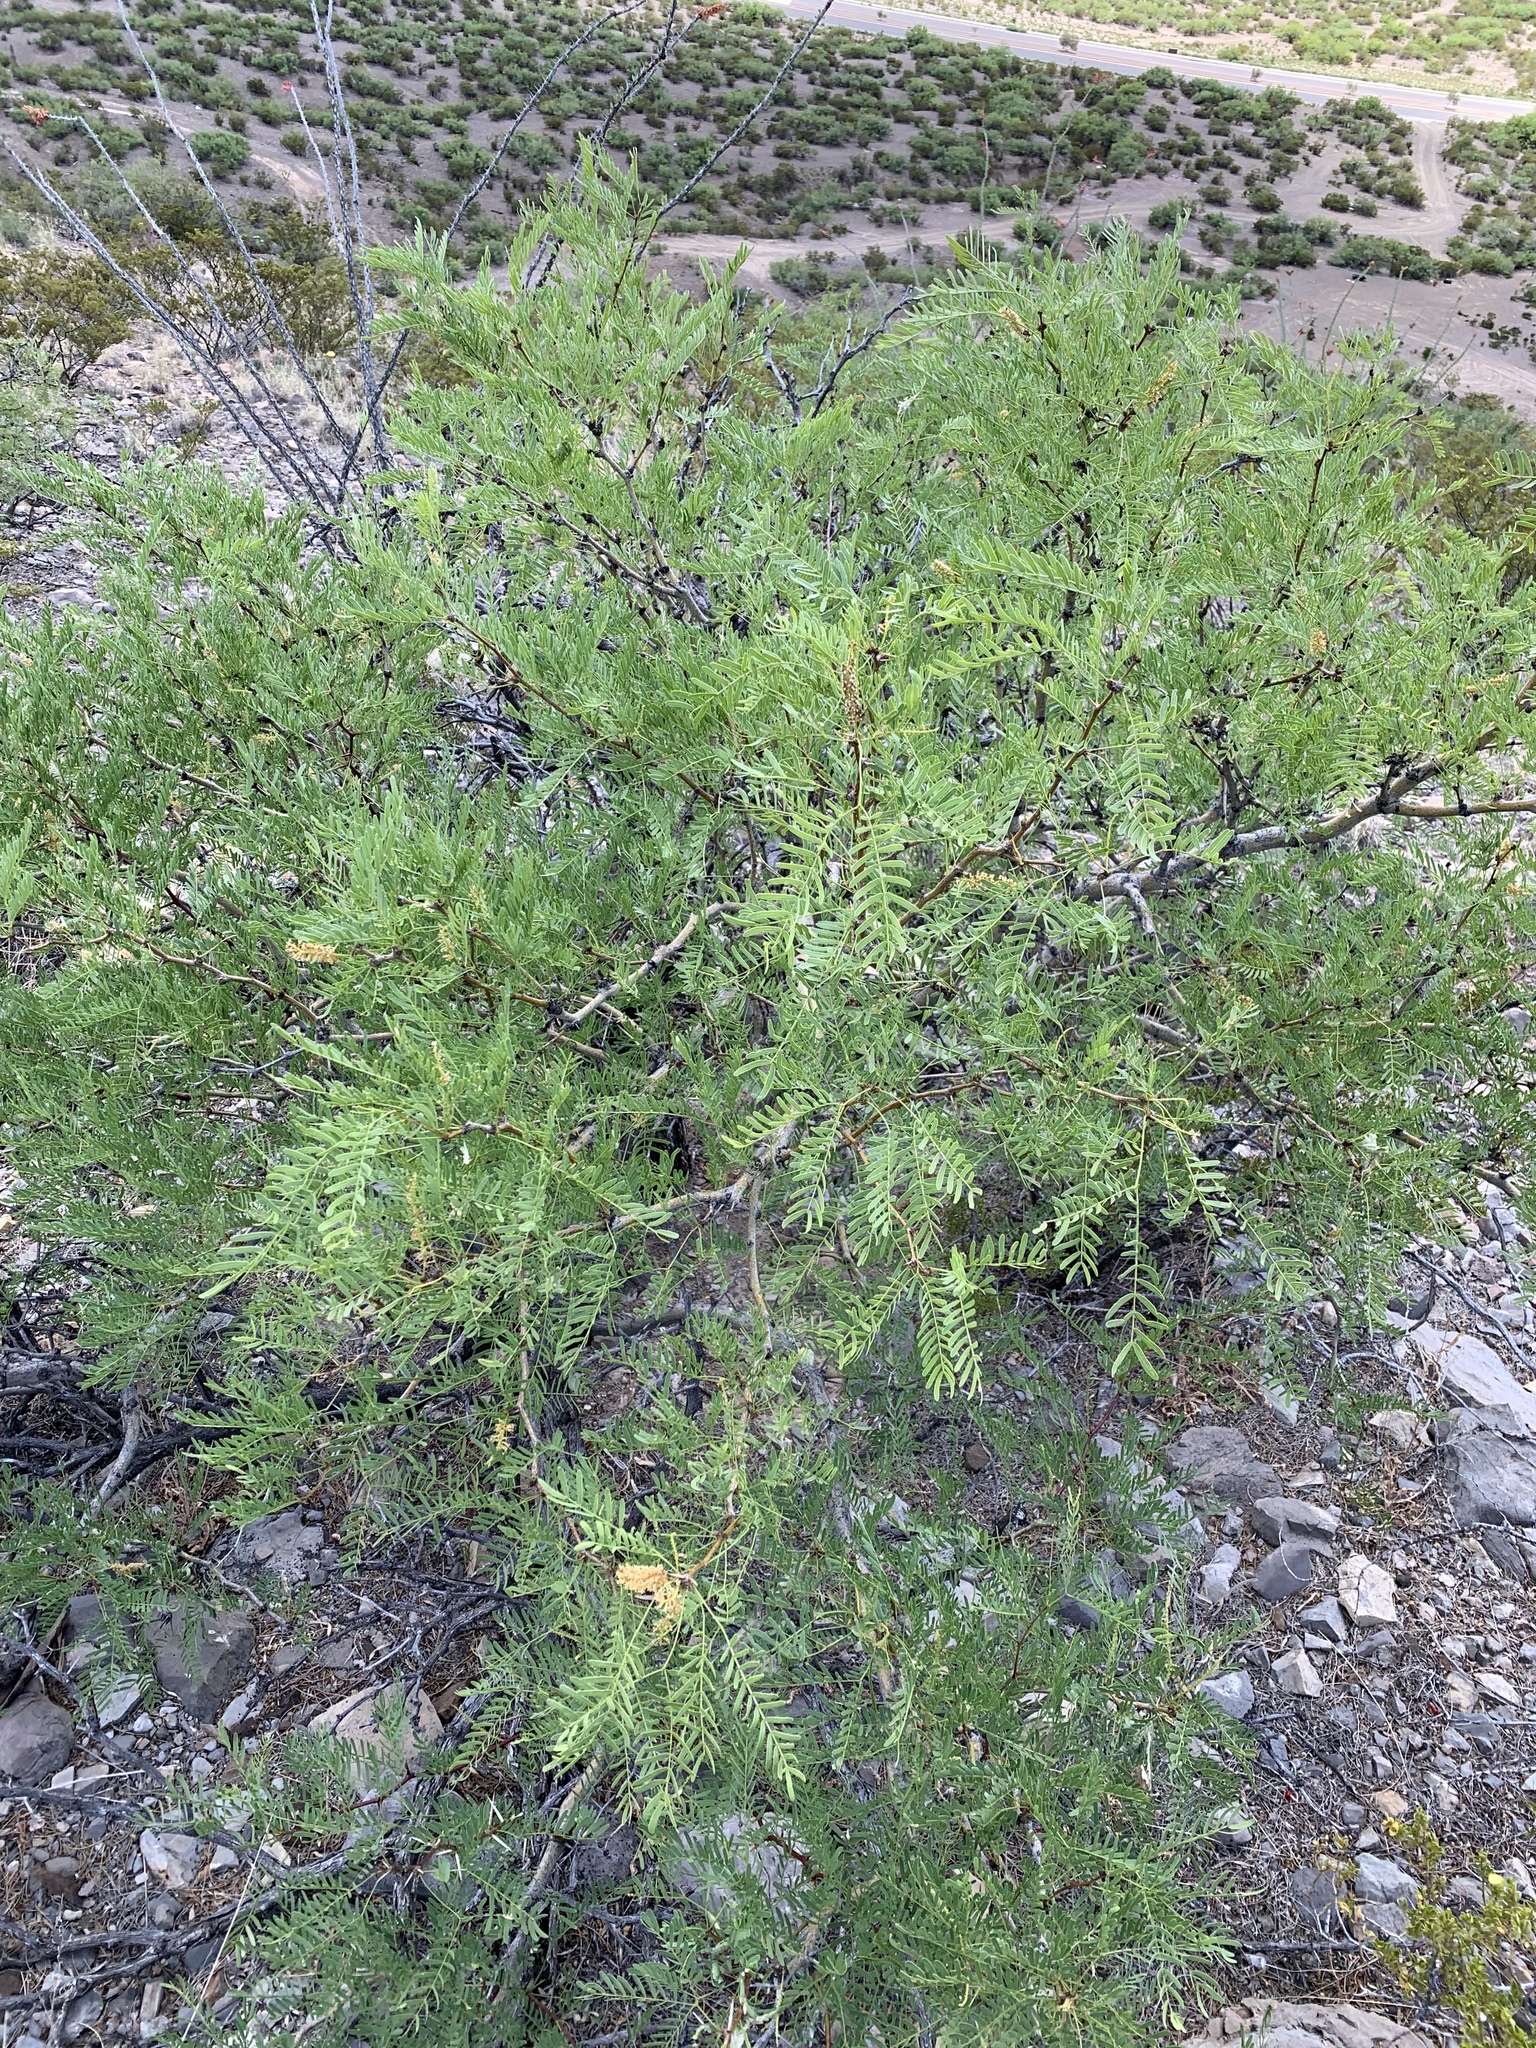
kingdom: Plantae
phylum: Tracheophyta
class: Magnoliopsida
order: Fabales
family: Fabaceae
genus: Prosopis
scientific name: Prosopis glandulosa
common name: Honey mesquite
